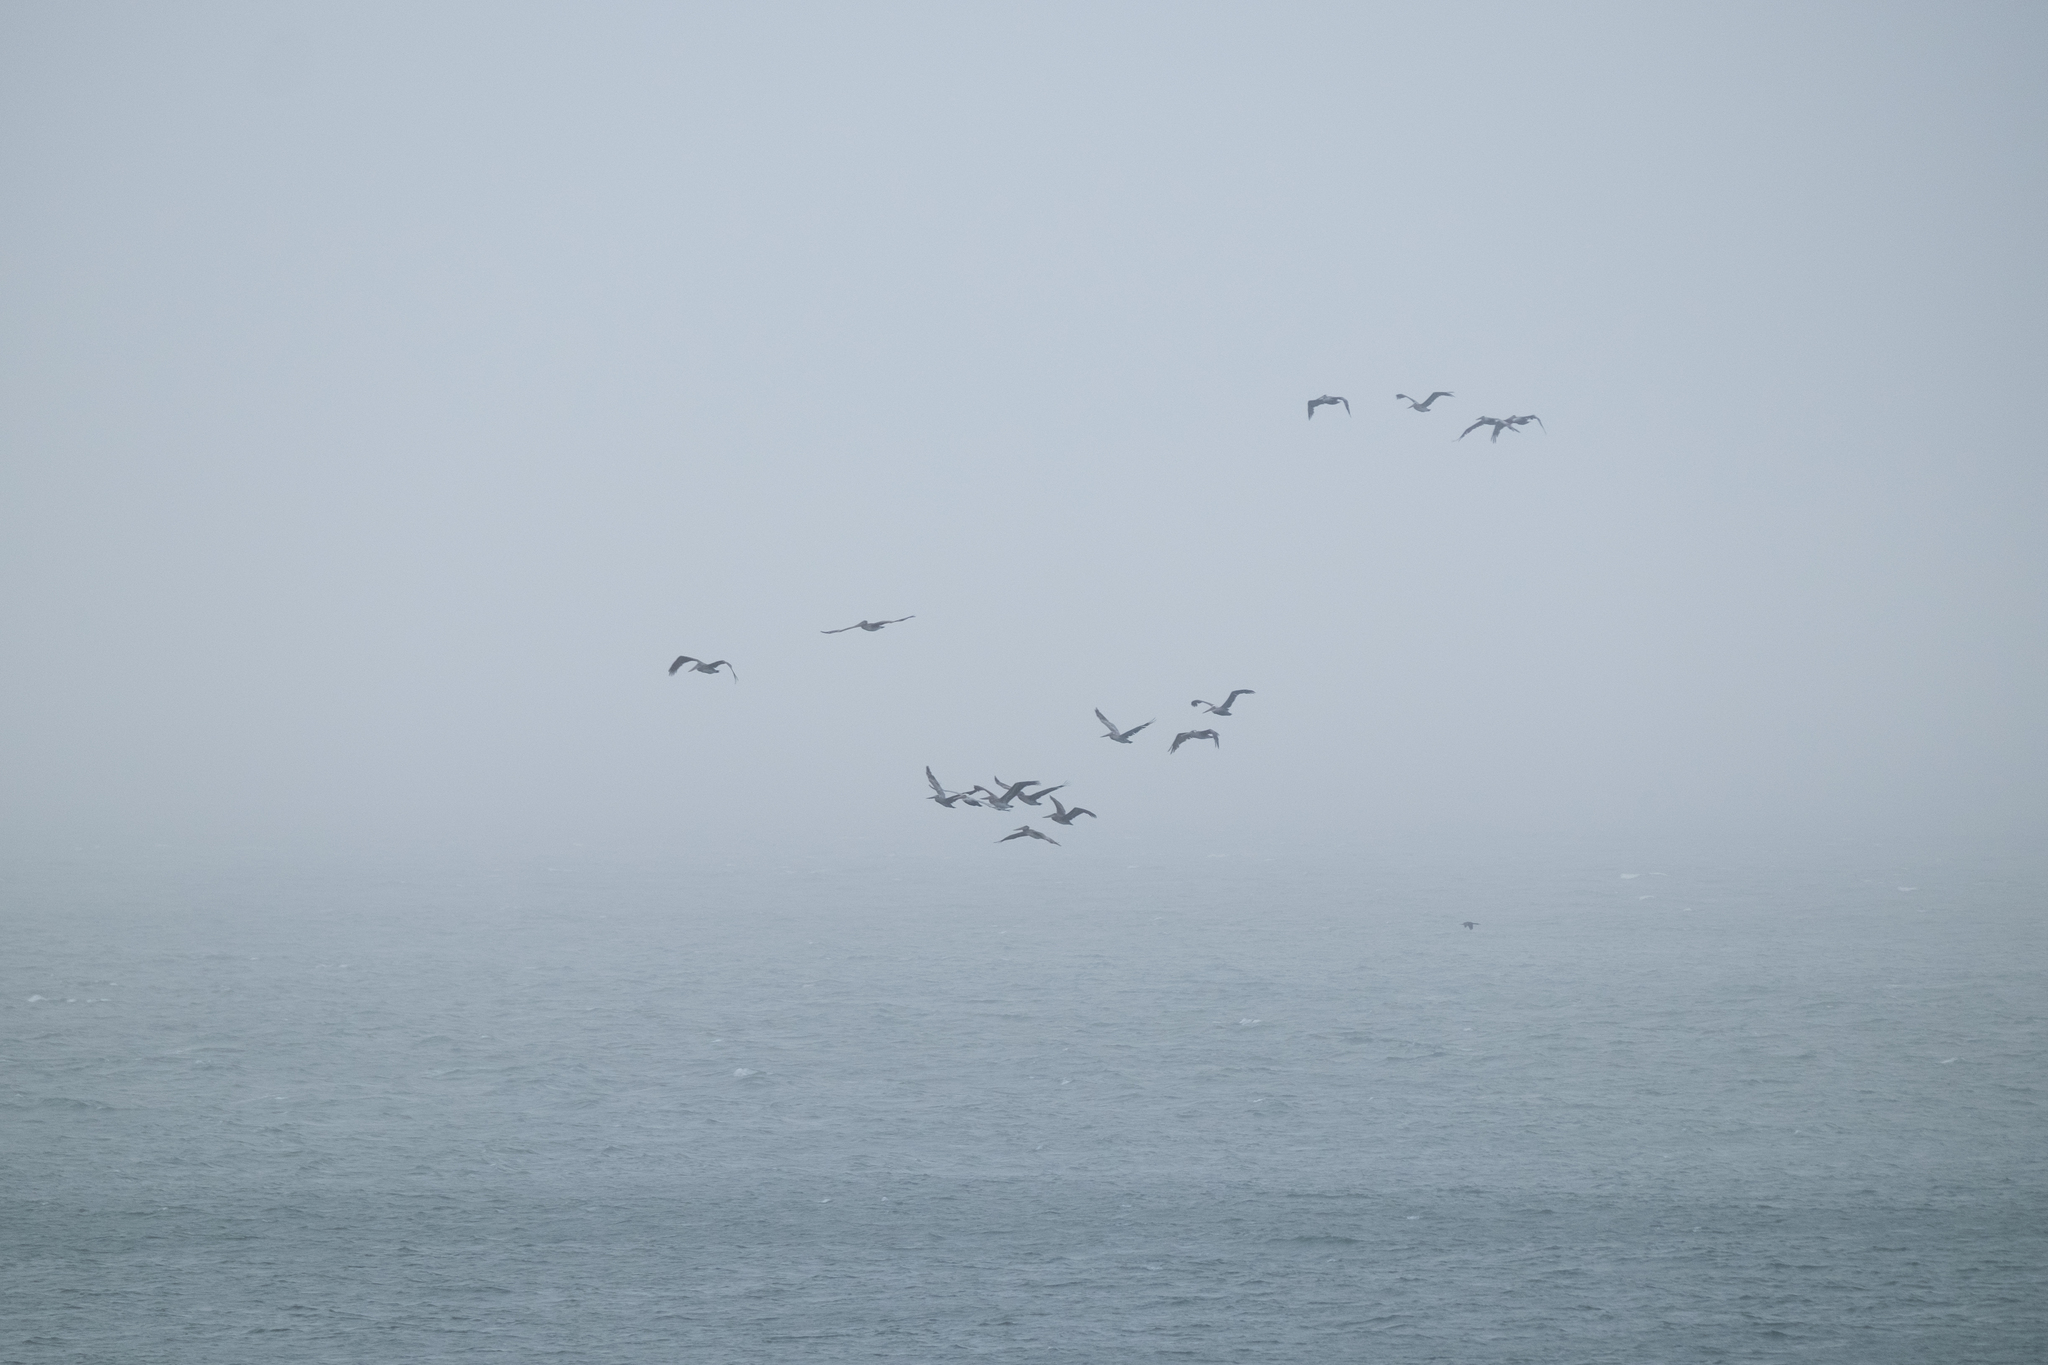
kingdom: Animalia
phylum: Chordata
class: Aves
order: Pelecaniformes
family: Pelecanidae
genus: Pelecanus
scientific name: Pelecanus occidentalis
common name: Brown pelican
